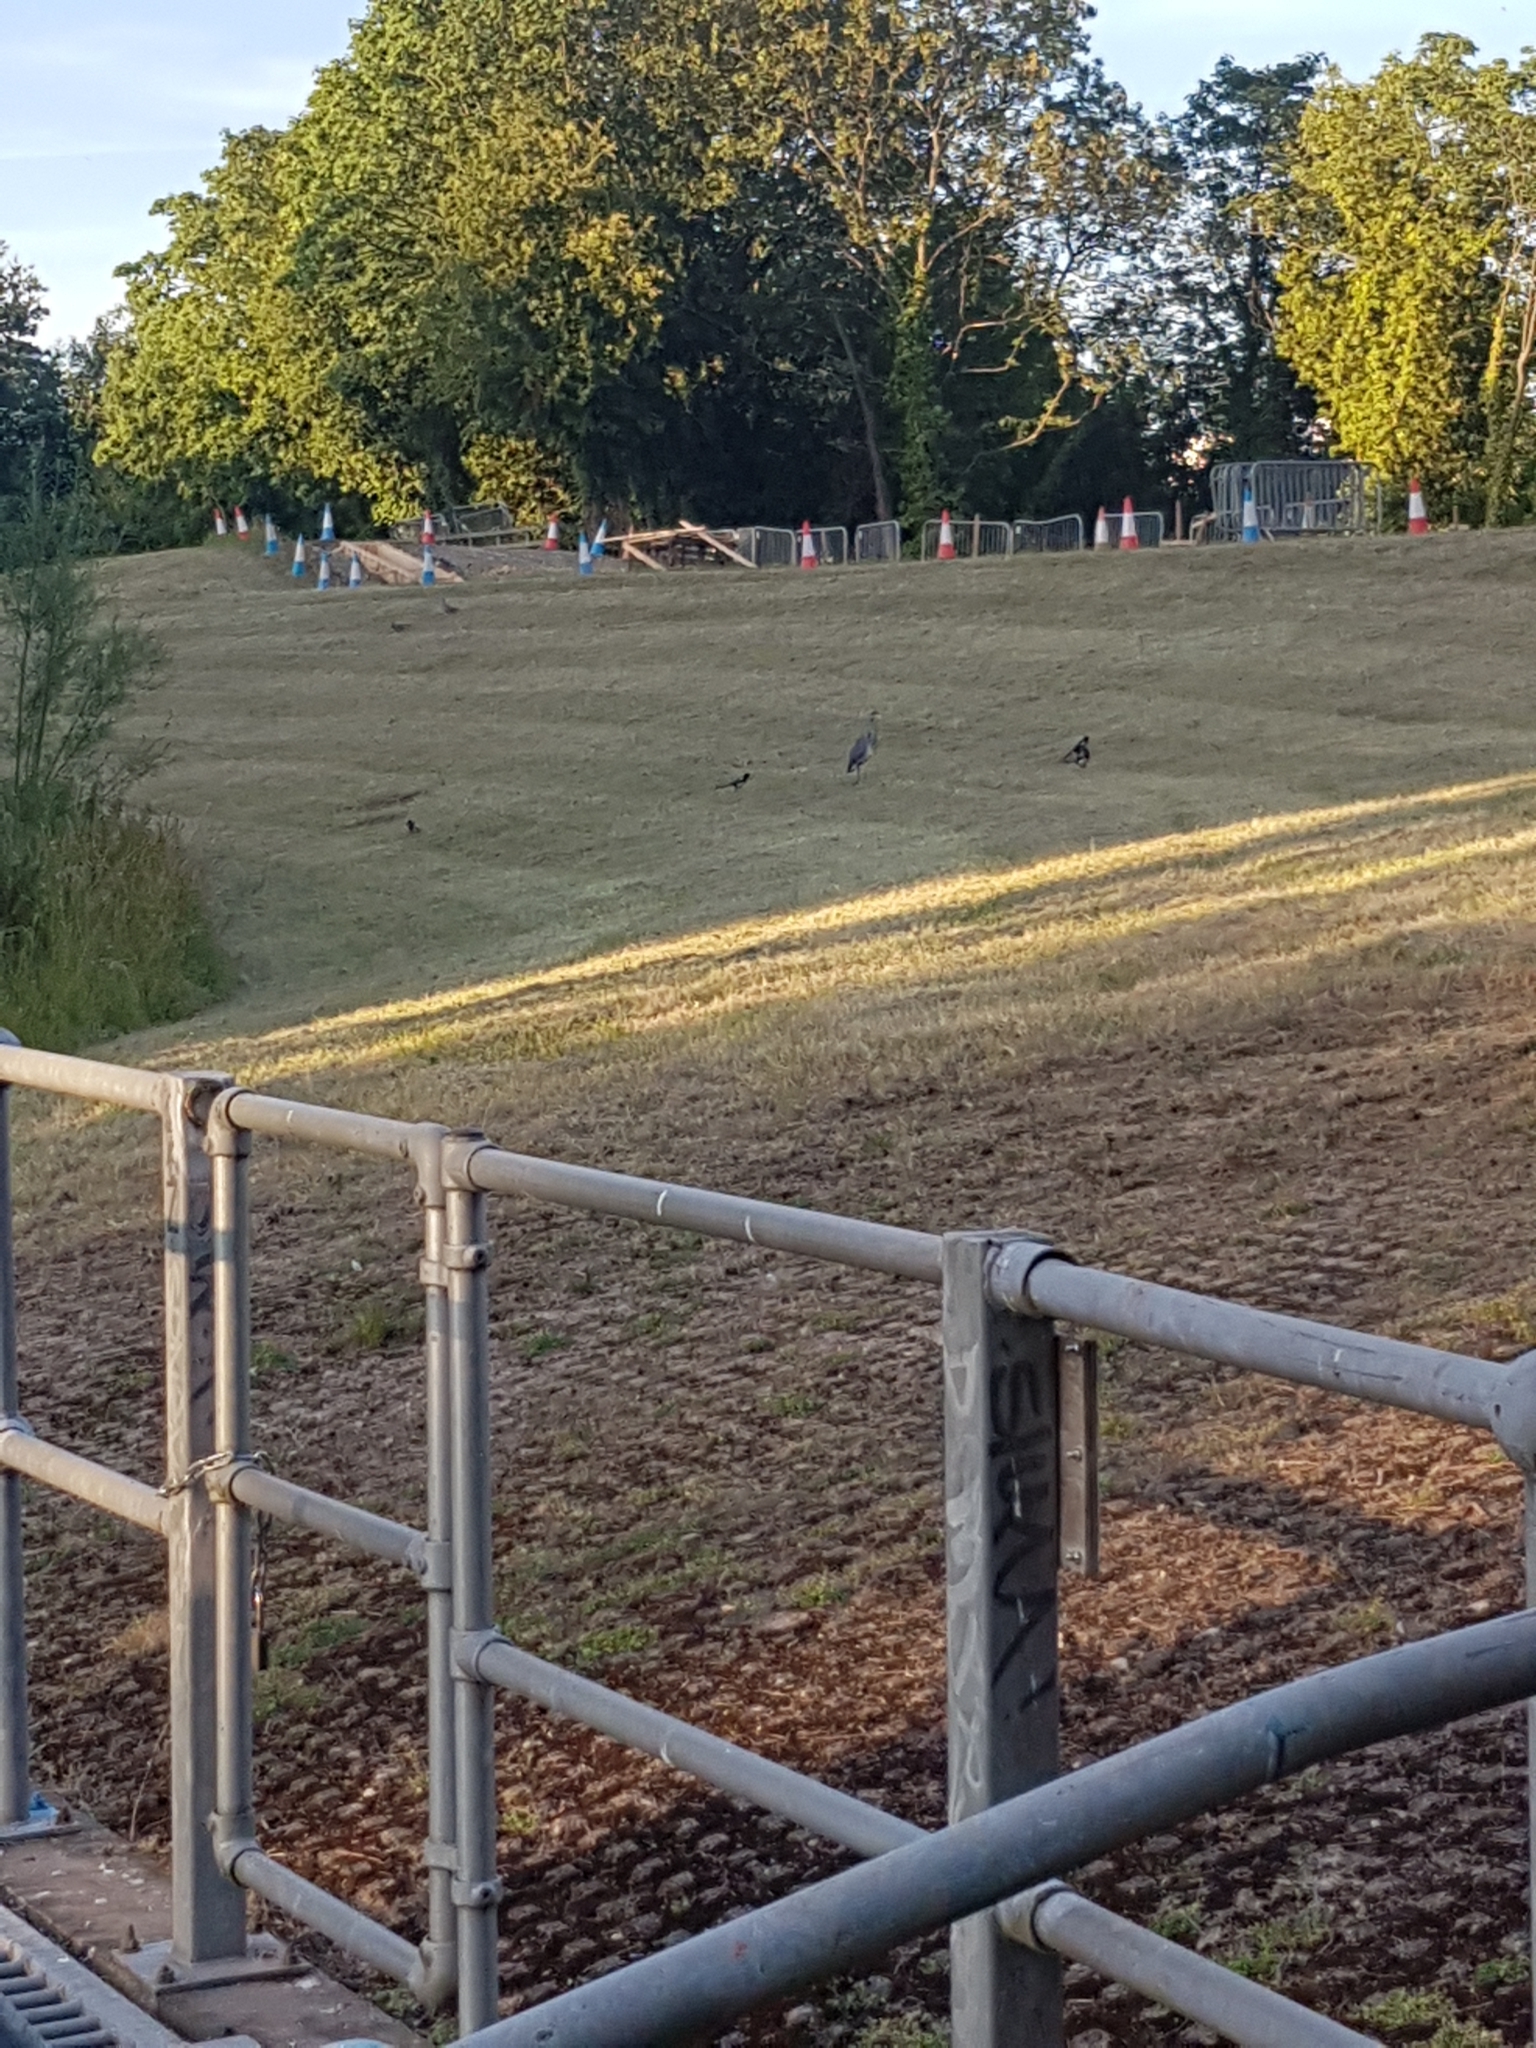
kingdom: Animalia
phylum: Chordata
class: Aves
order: Pelecaniformes
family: Ardeidae
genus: Ardea
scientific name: Ardea cinerea
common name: Grey heron
